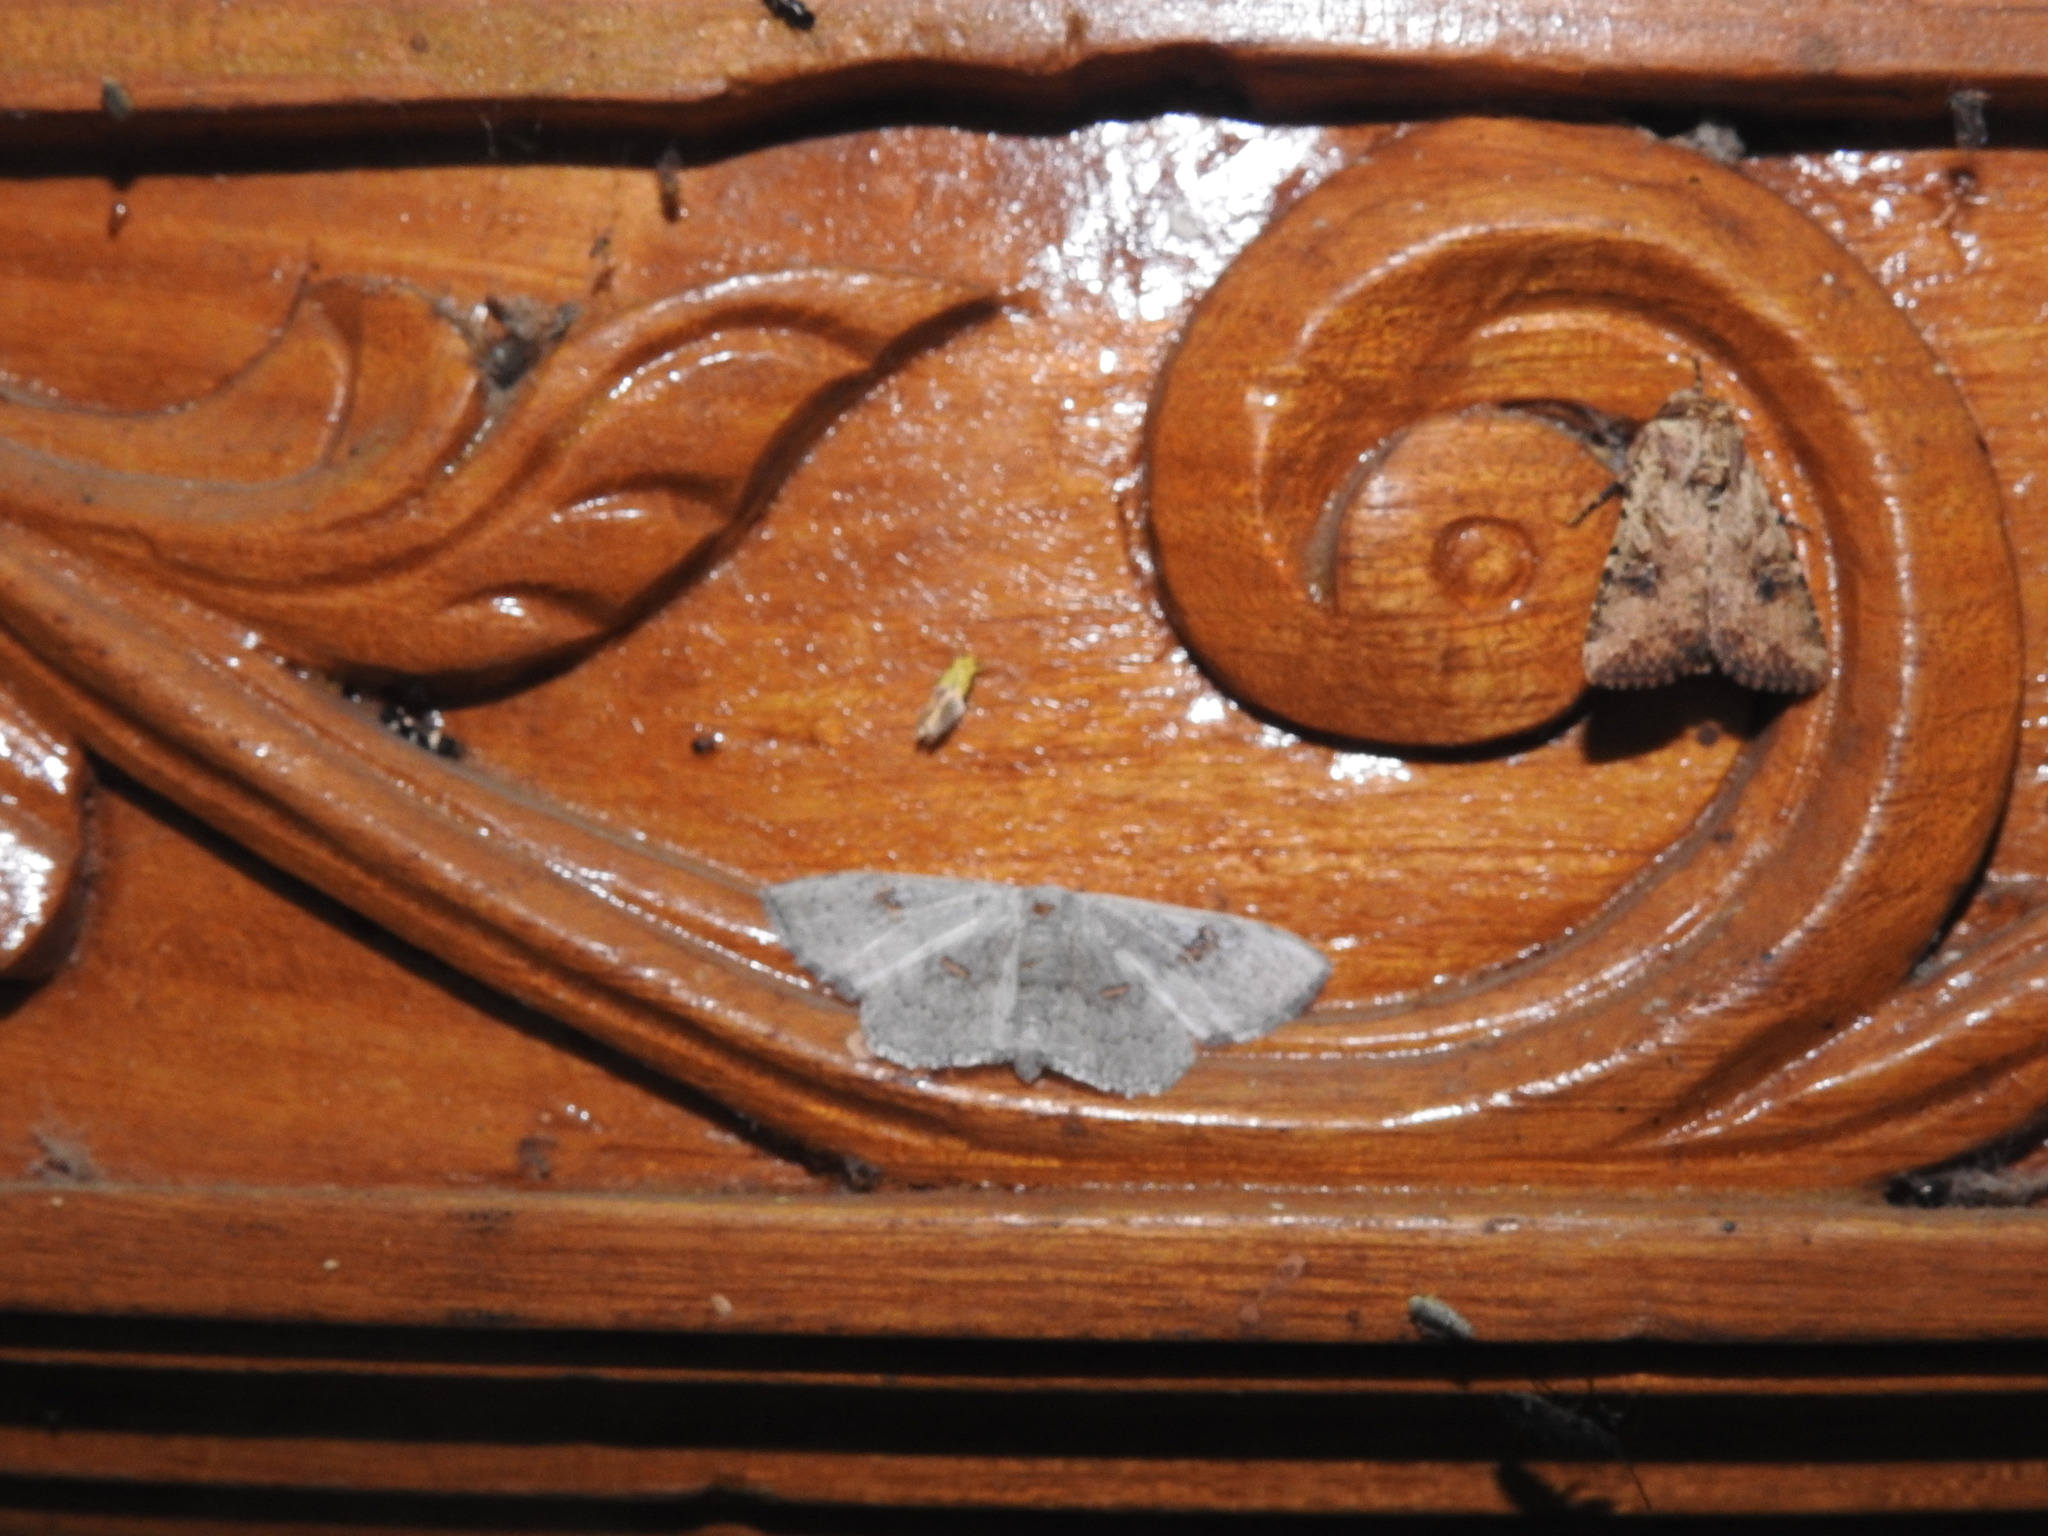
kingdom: Animalia
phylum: Arthropoda
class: Insecta
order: Lepidoptera
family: Geometridae
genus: Somatina
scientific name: Somatina omicraria
